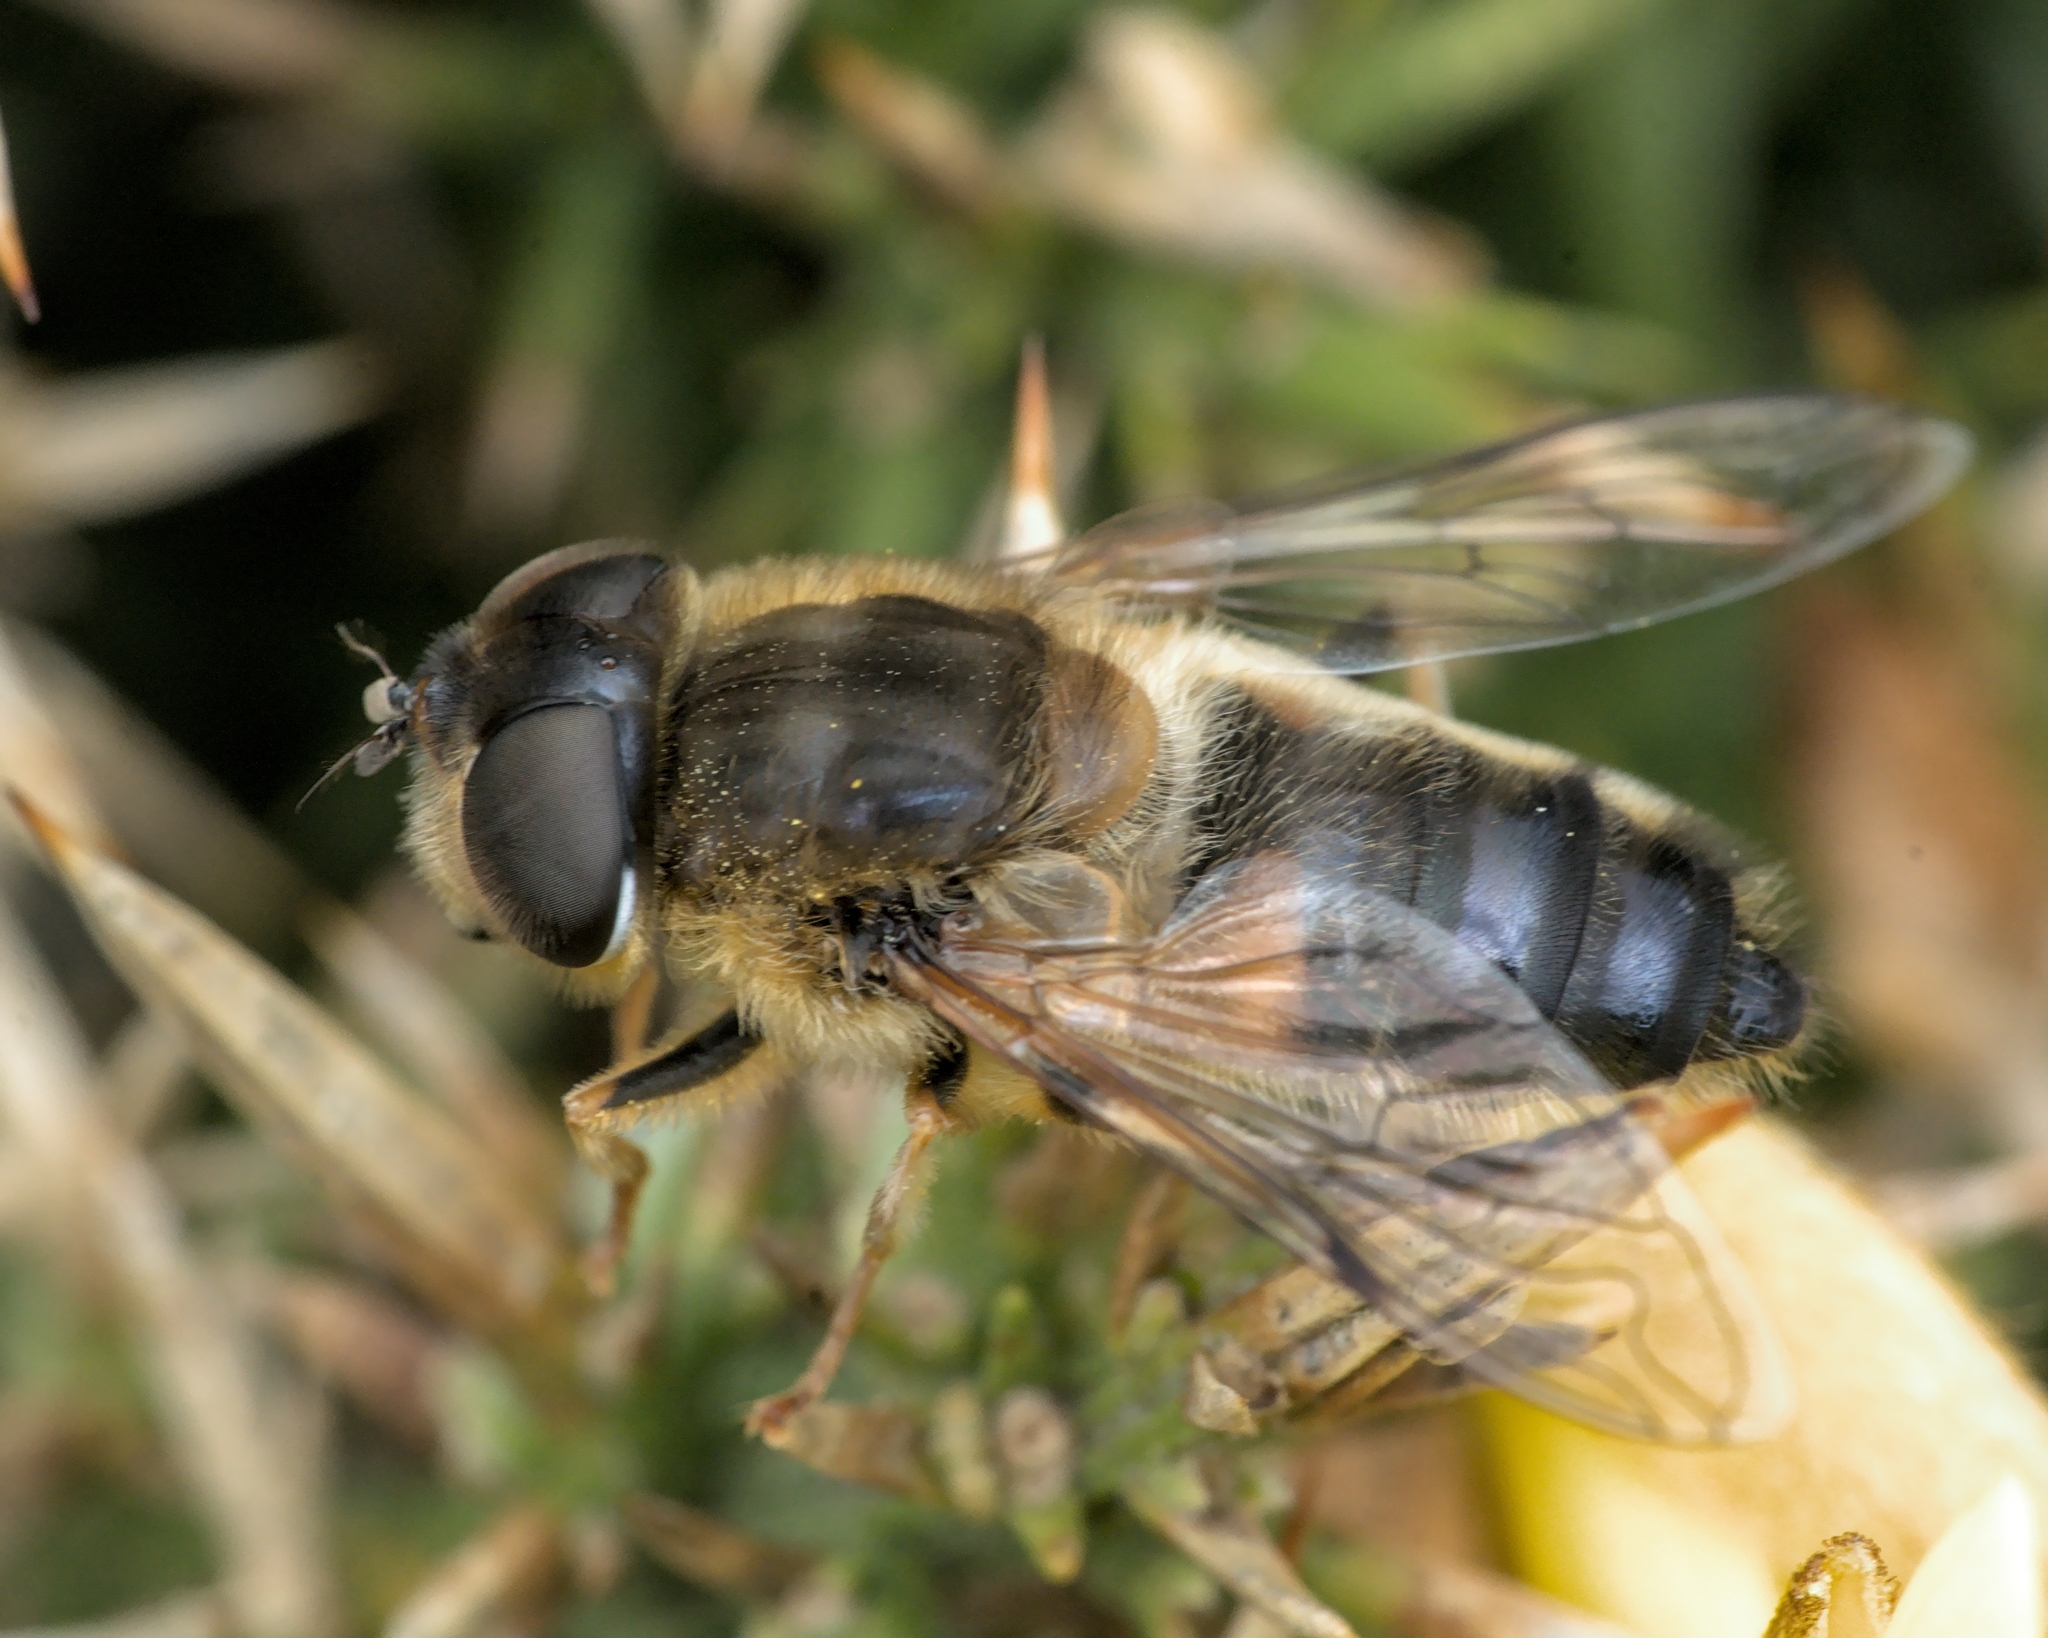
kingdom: Animalia
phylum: Arthropoda
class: Insecta
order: Diptera
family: Syrphidae
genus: Eristalis
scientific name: Eristalis pertinax
